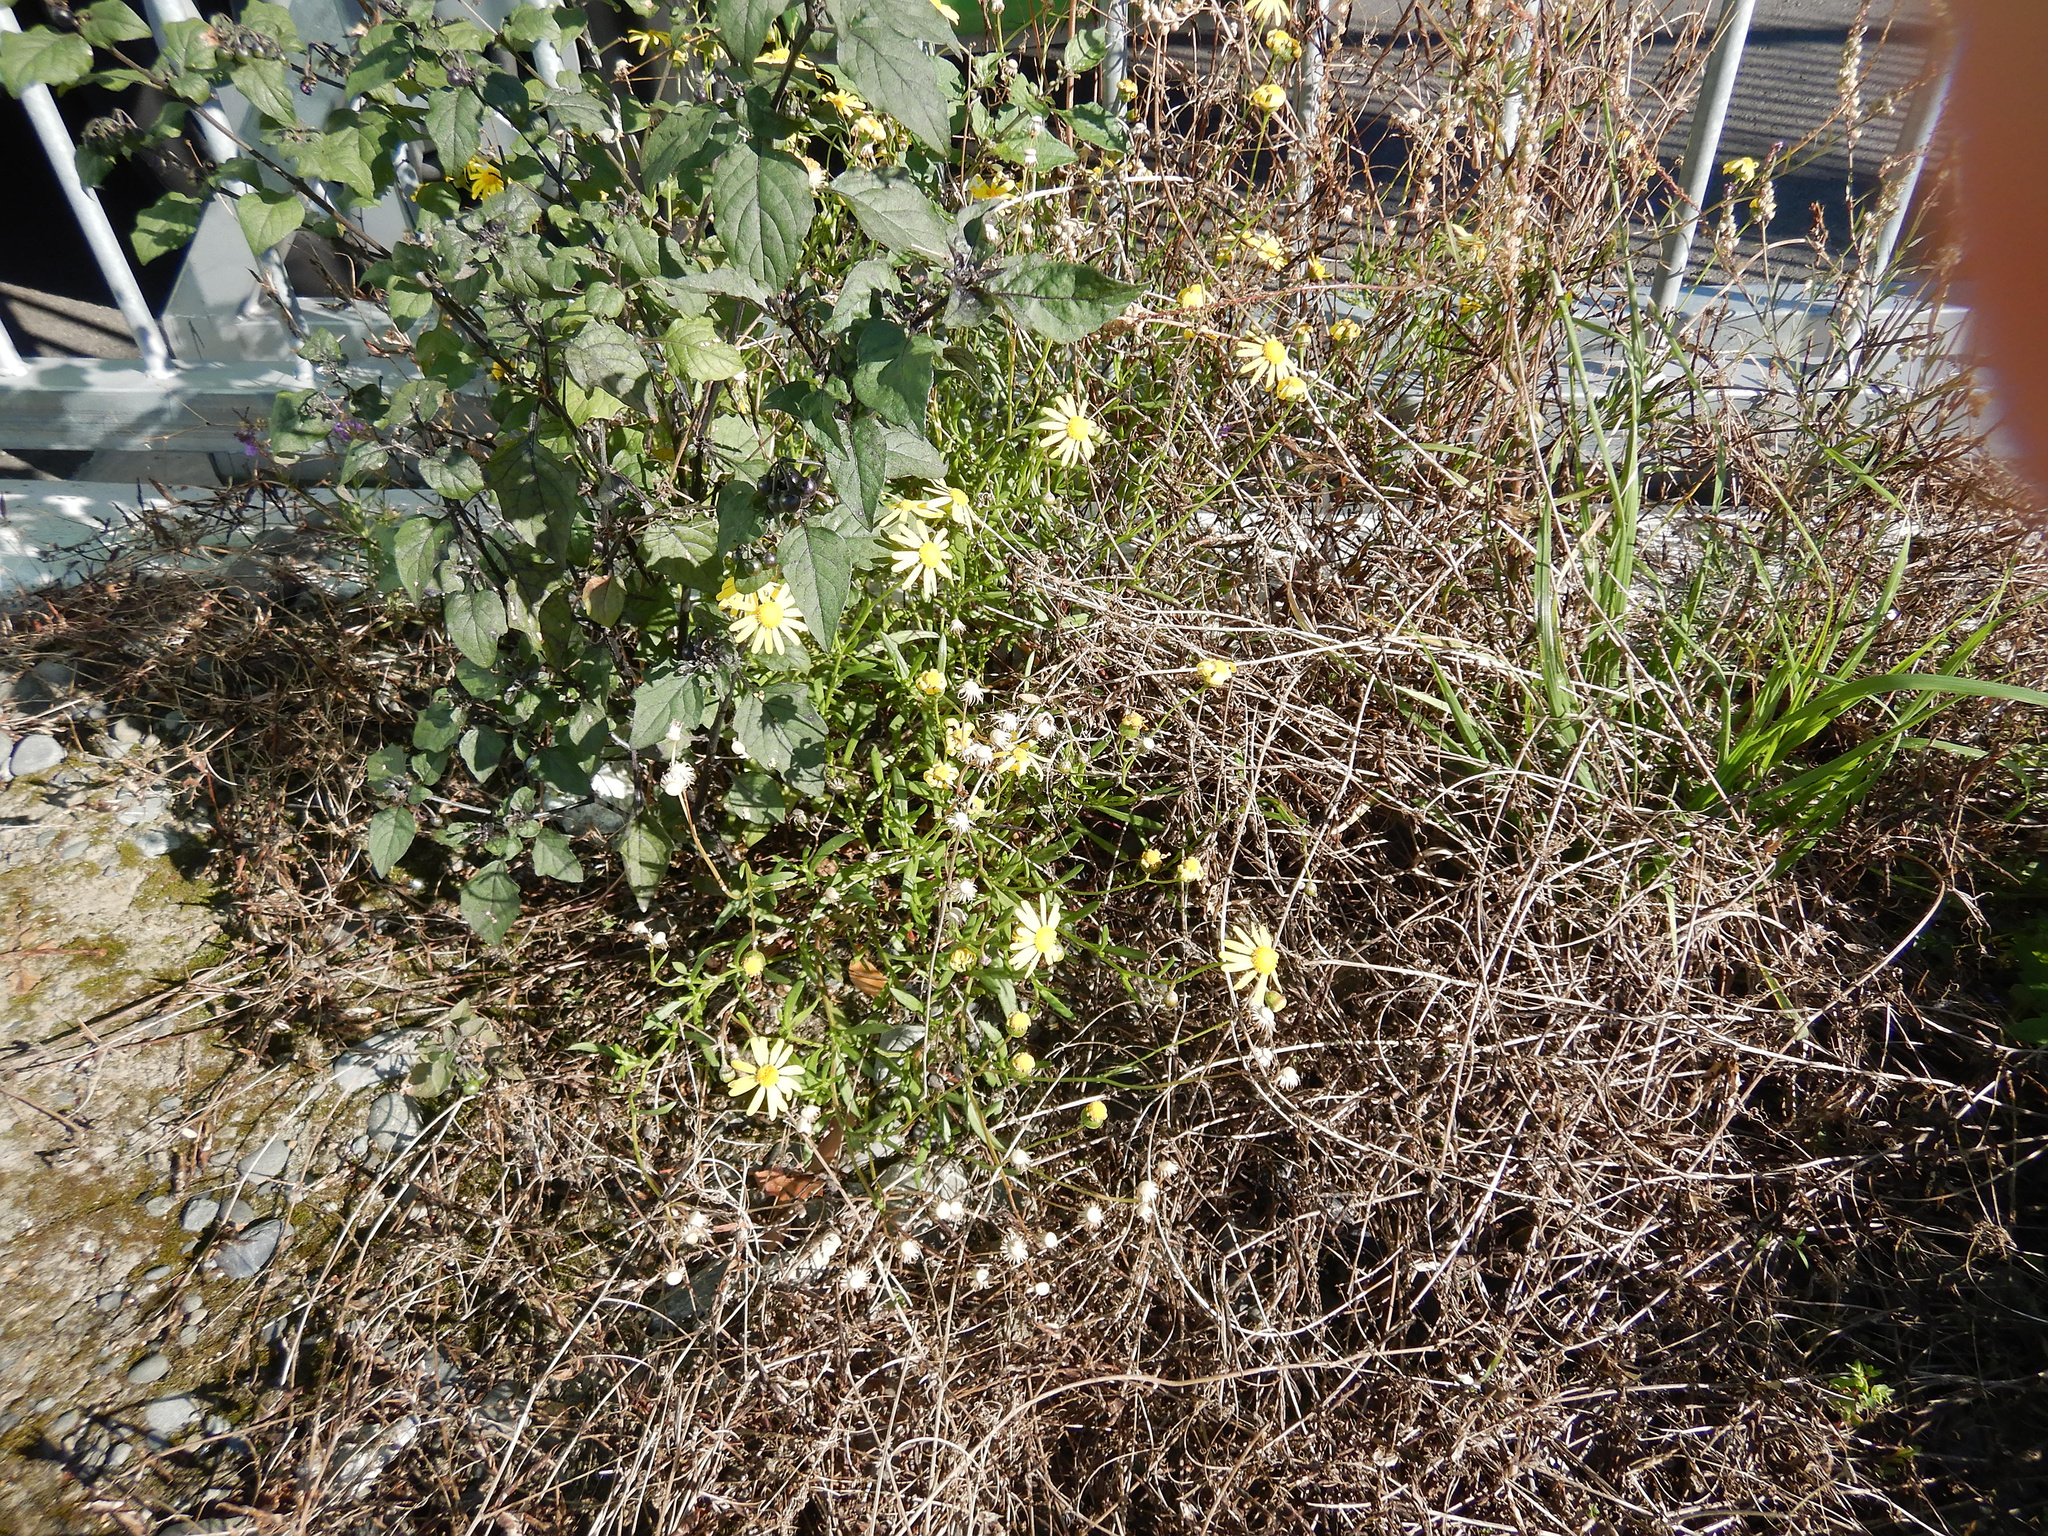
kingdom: Plantae
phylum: Tracheophyta
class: Magnoliopsida
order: Asterales
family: Asteraceae
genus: Senecio
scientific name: Senecio skirrhodon
